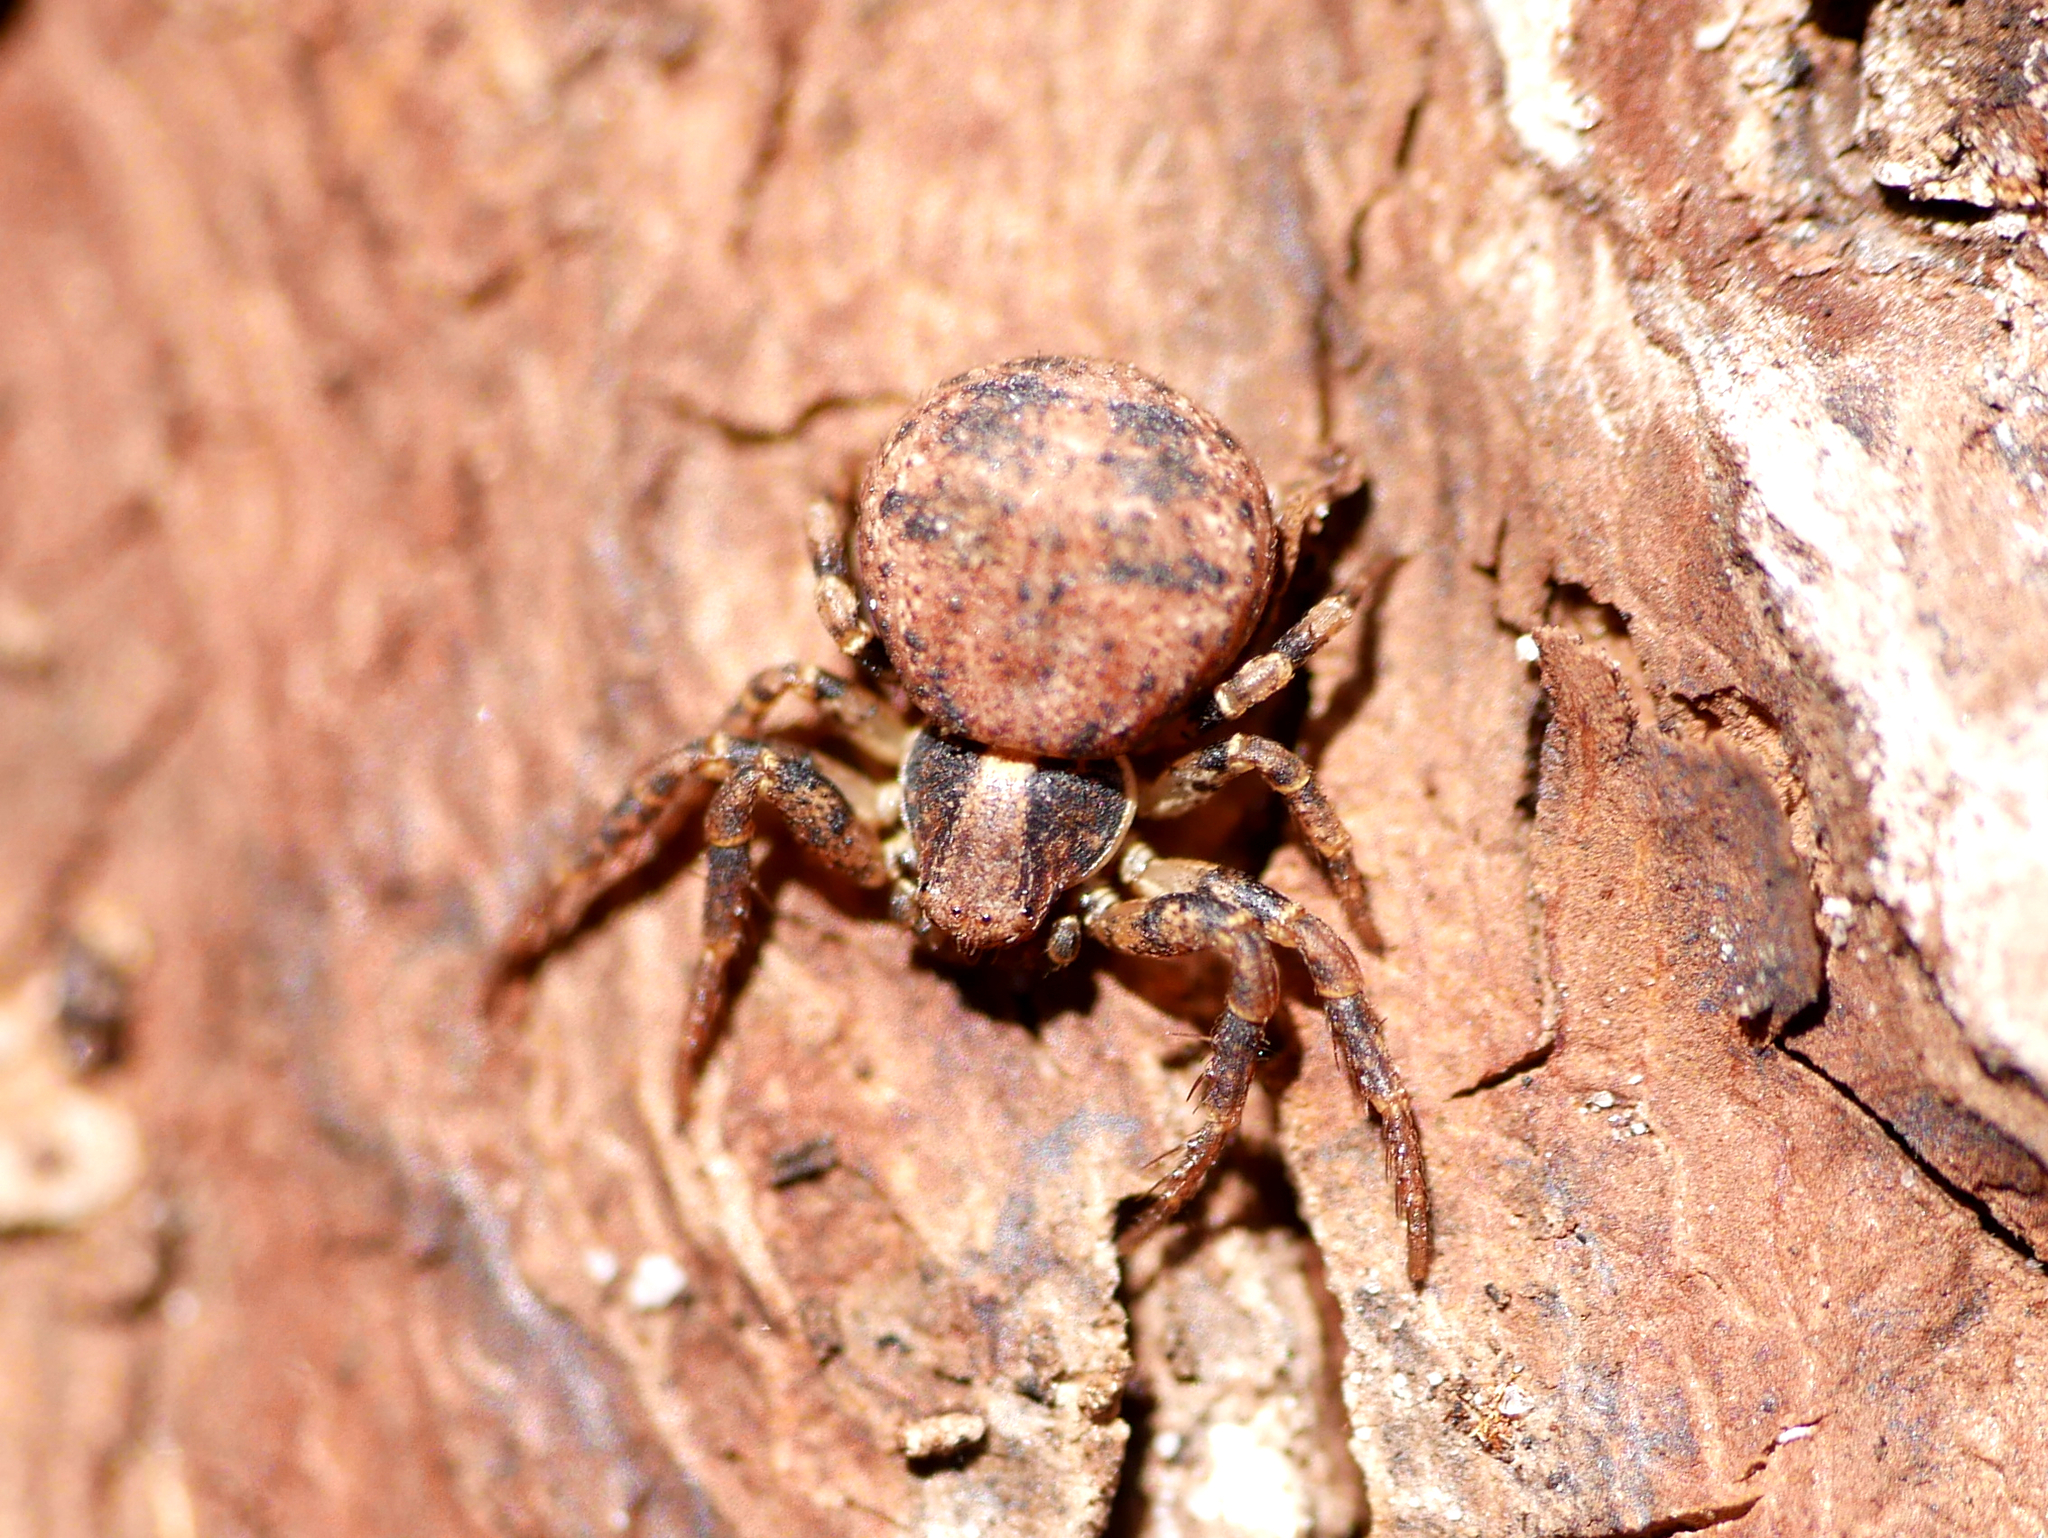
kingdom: Animalia
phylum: Arthropoda
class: Arachnida
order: Araneae
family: Thomisidae
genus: Ozyptila
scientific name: Ozyptila praticola
